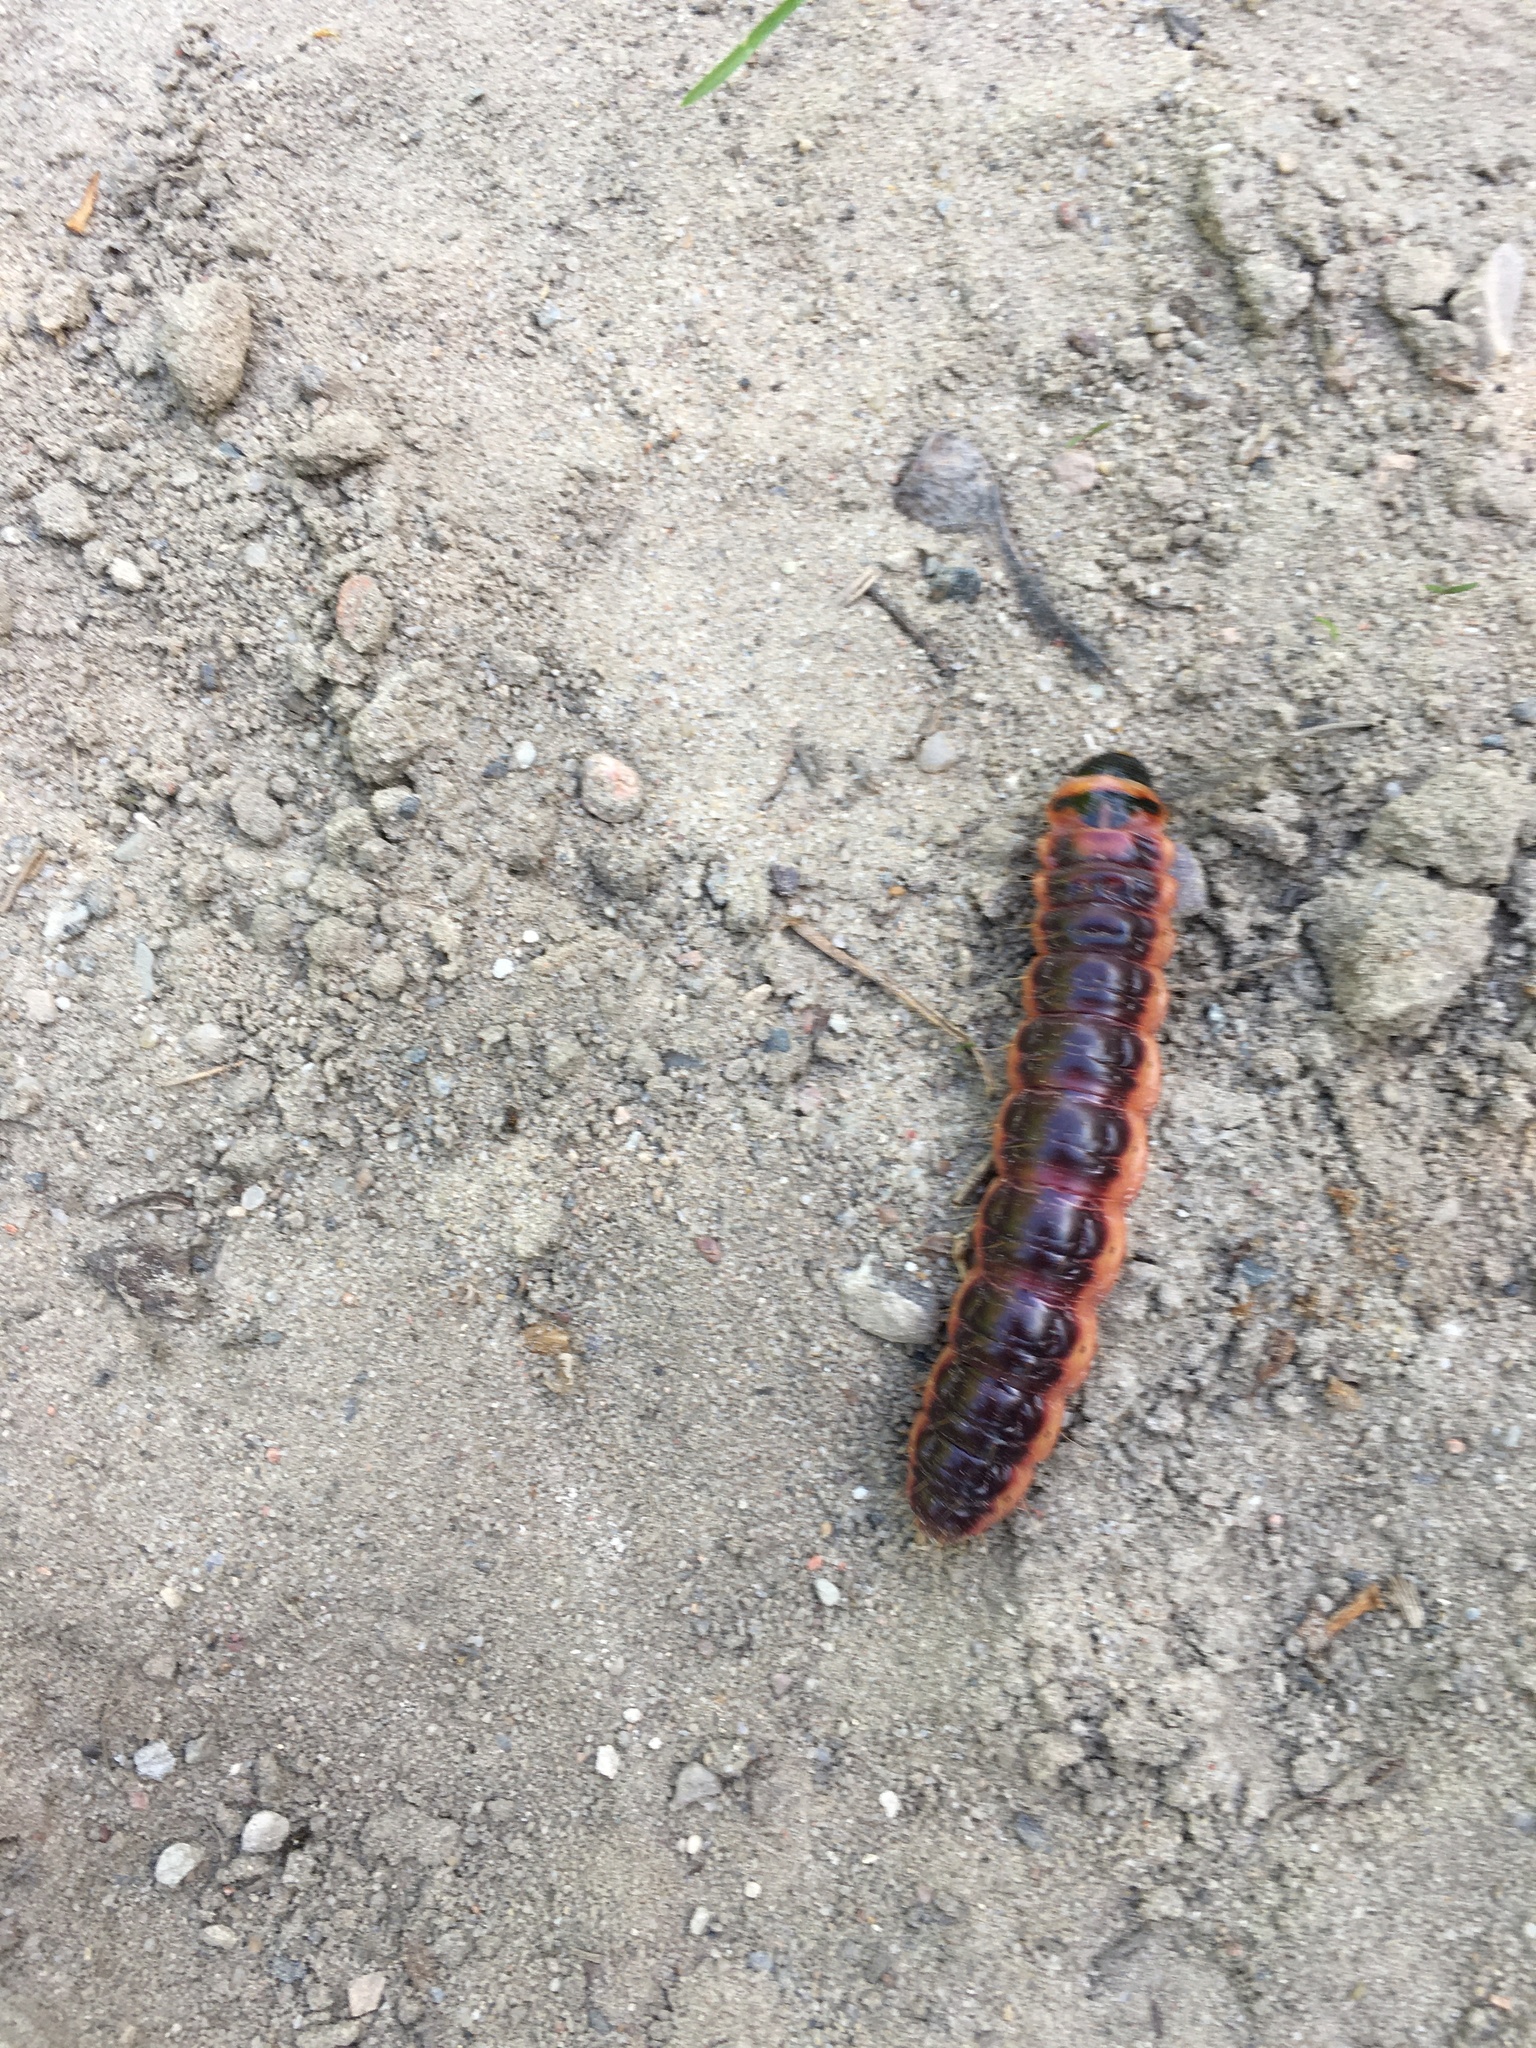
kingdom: Animalia
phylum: Arthropoda
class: Insecta
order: Lepidoptera
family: Cossidae
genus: Cossus
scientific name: Cossus cossus
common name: Goat moth
